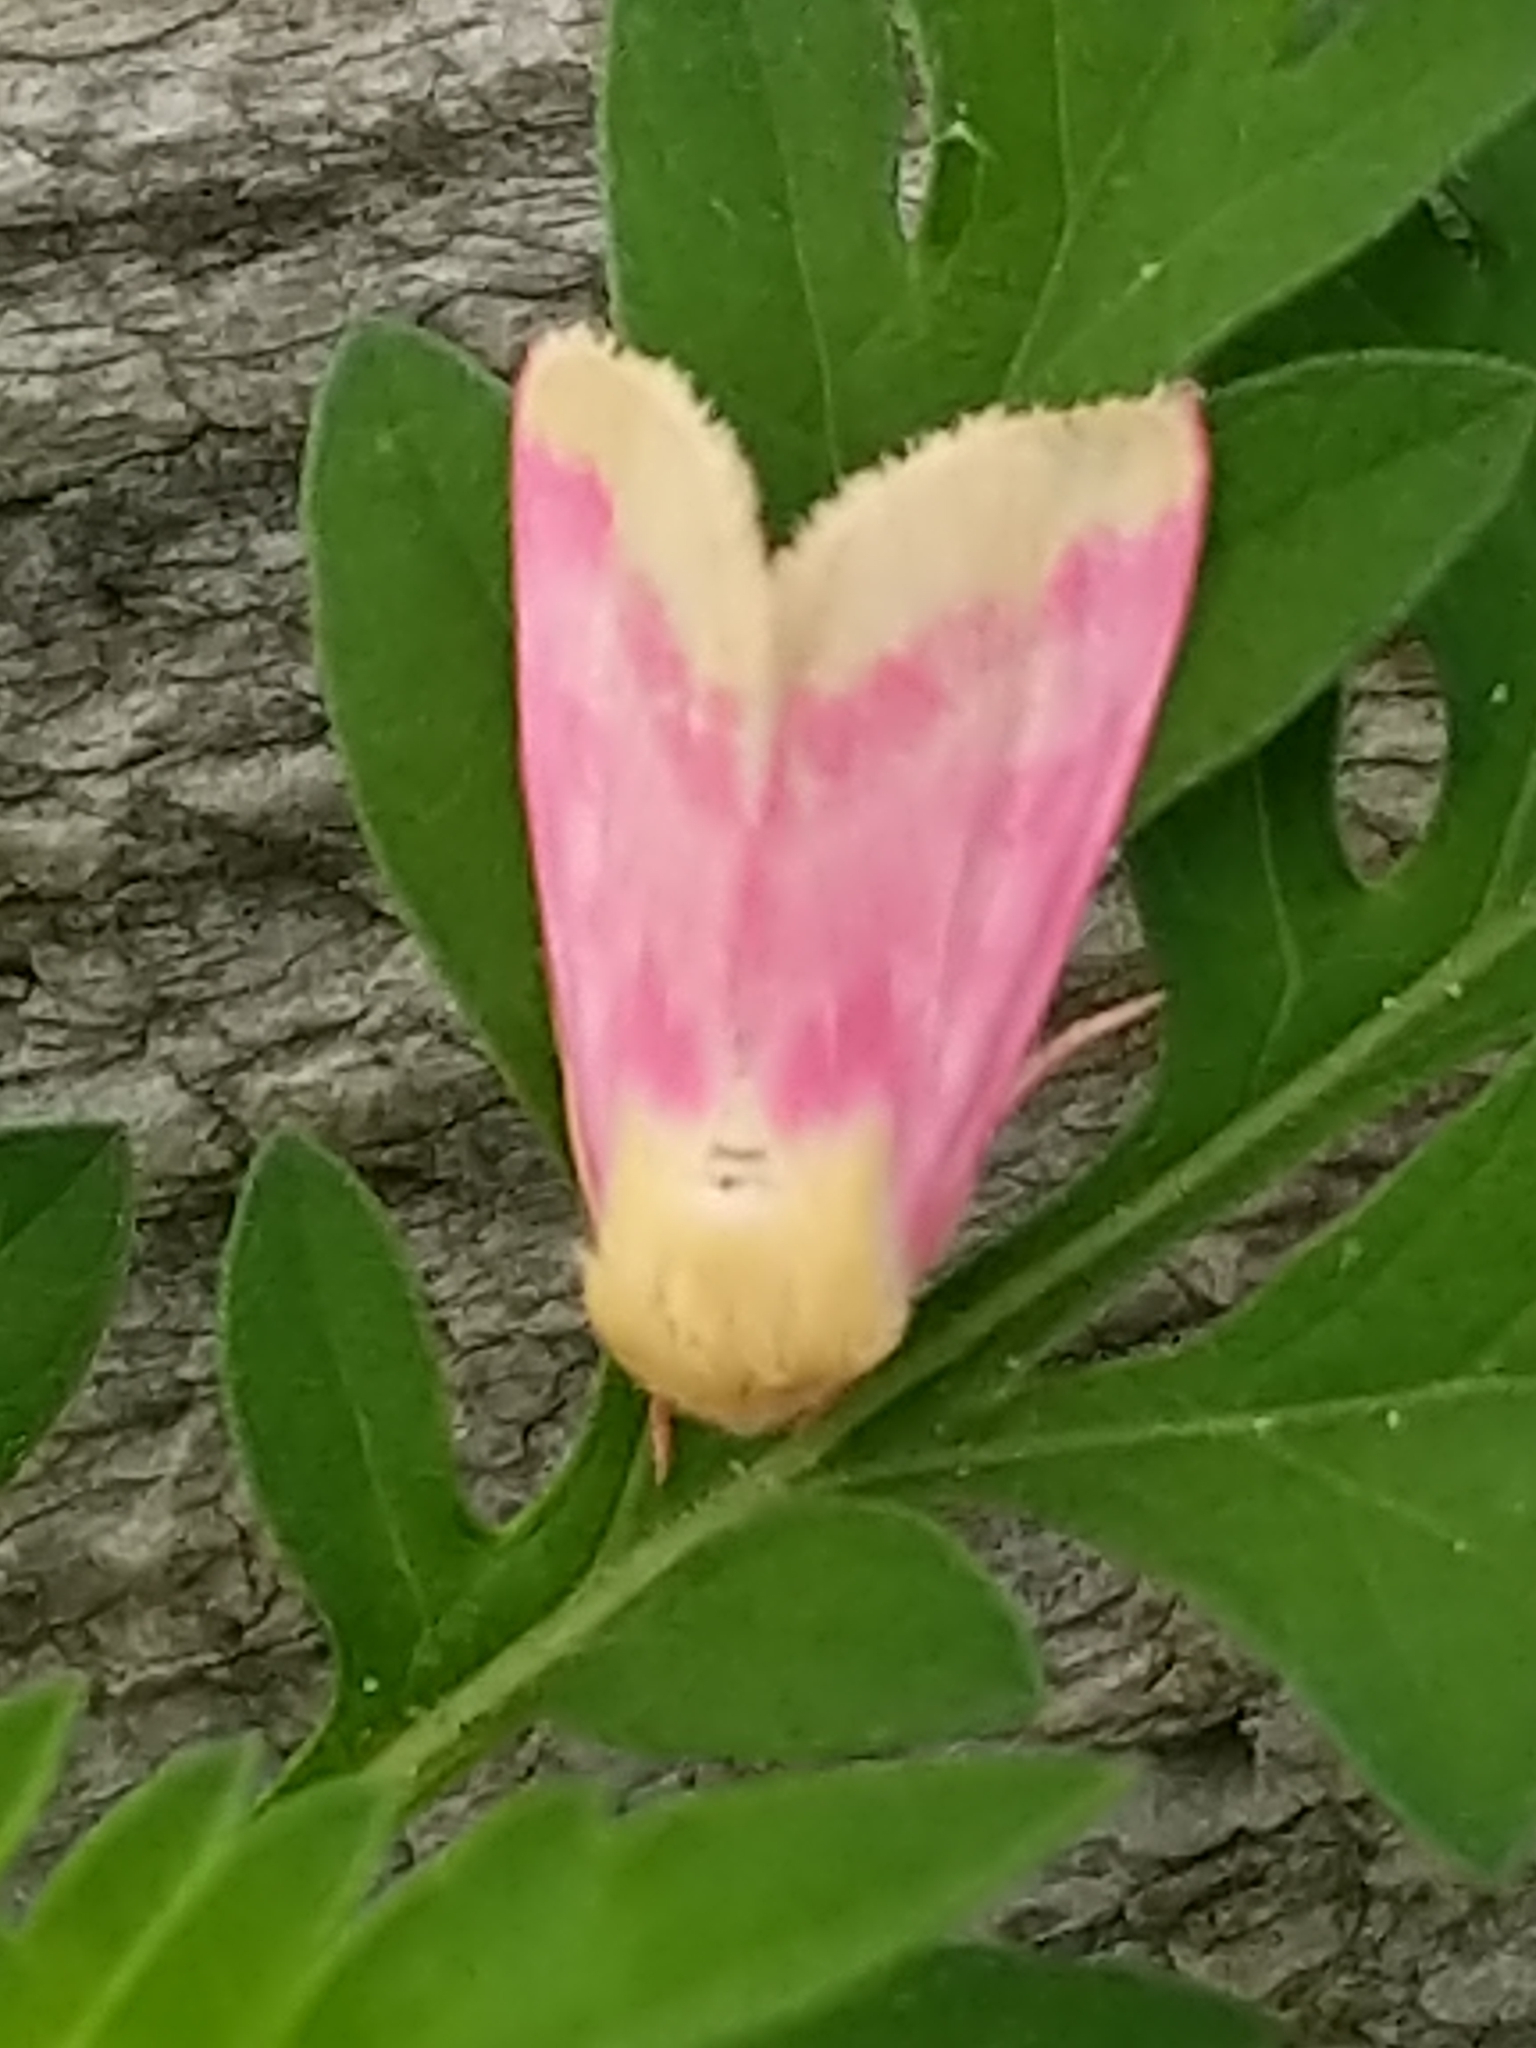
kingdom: Animalia
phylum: Arthropoda
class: Insecta
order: Lepidoptera
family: Noctuidae
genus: Schinia
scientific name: Schinia florida
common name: Primrose moth
